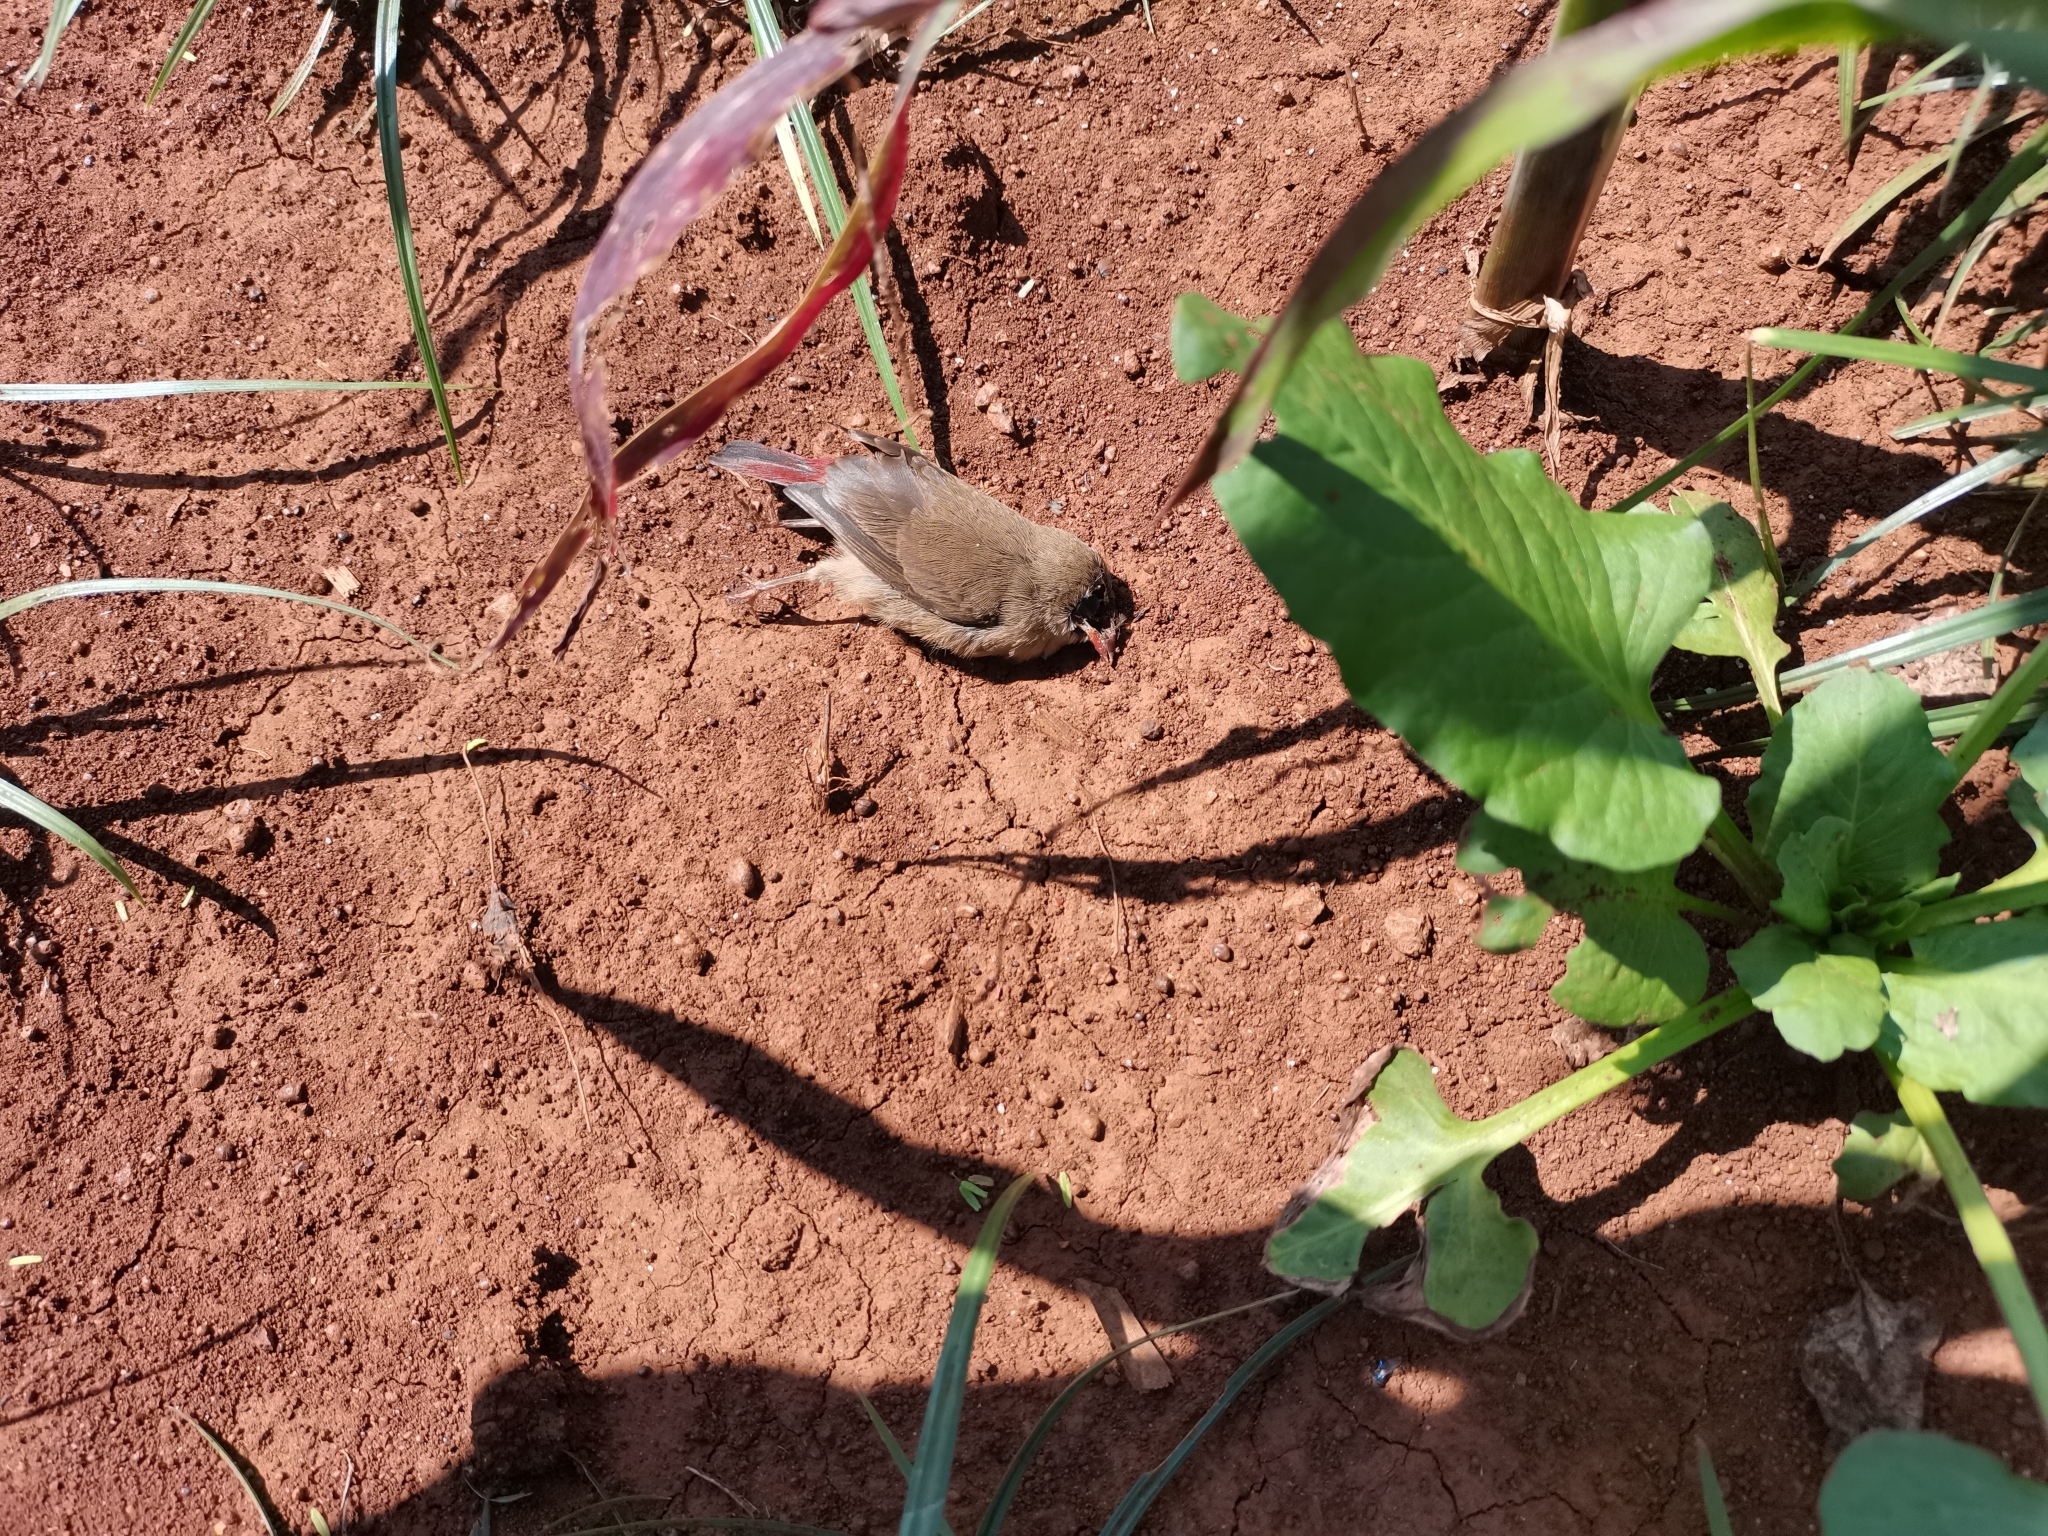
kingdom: Animalia
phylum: Chordata
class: Aves
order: Passeriformes
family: Estrildidae
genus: Lagonosticta
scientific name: Lagonosticta senegala
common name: Red-billed firefinch
